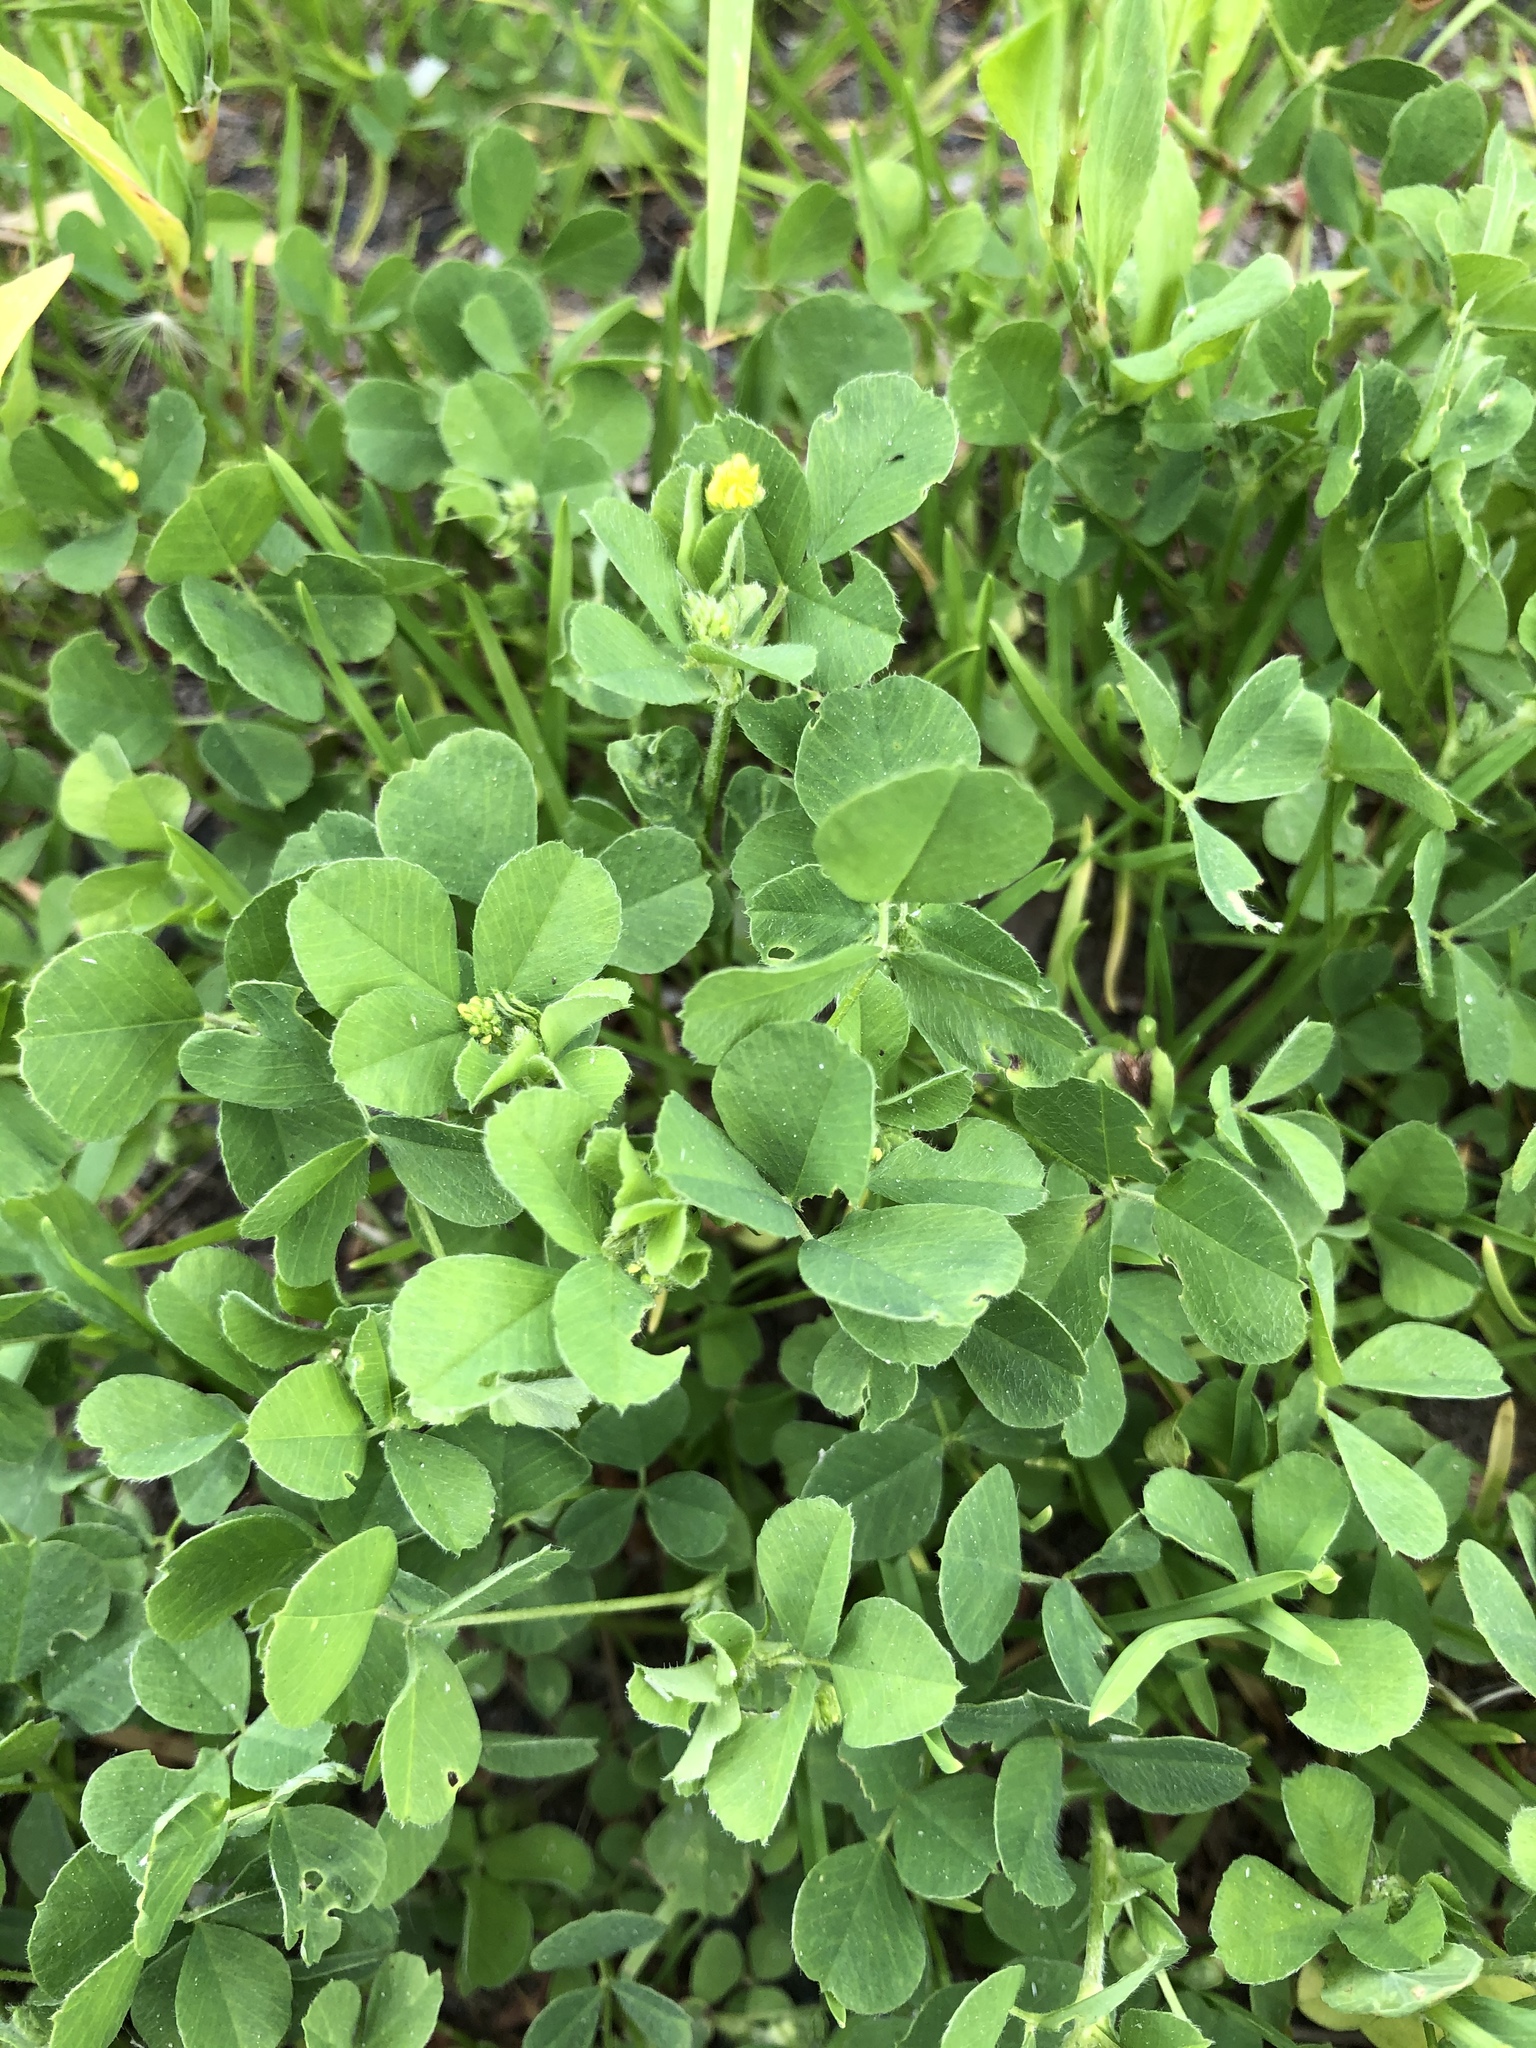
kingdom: Plantae
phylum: Tracheophyta
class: Magnoliopsida
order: Fabales
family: Fabaceae
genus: Medicago
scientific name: Medicago lupulina
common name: Black medick
